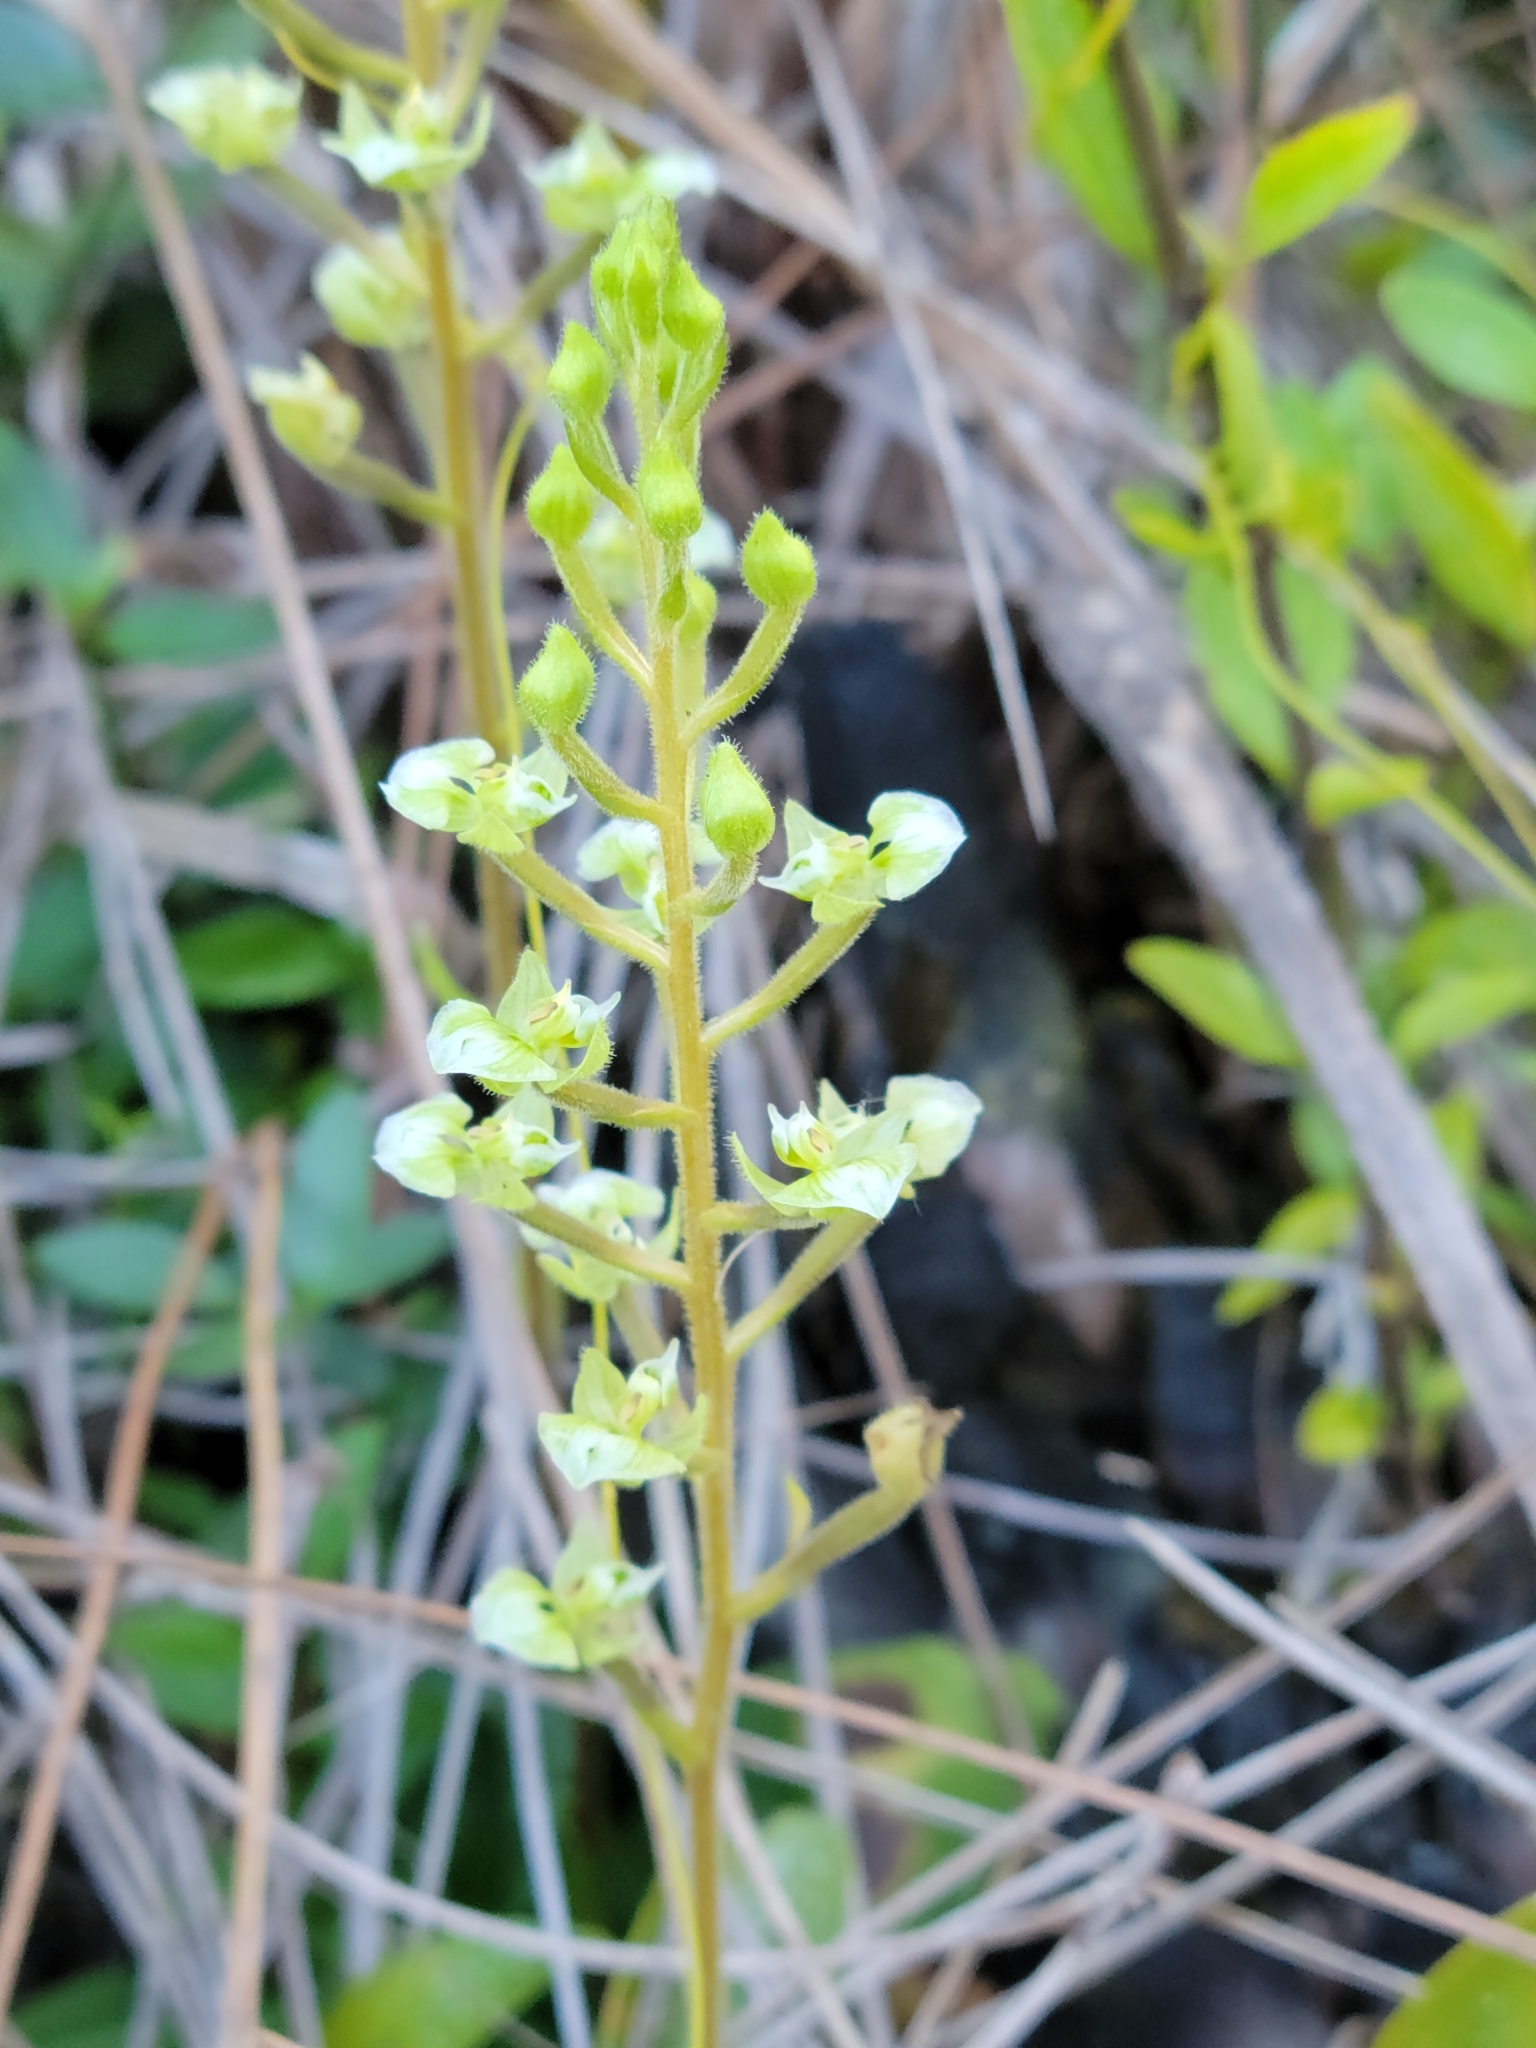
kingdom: Plantae
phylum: Tracheophyta
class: Liliopsida
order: Asparagales
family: Orchidaceae
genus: Ponthieva
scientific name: Ponthieva racemosa
